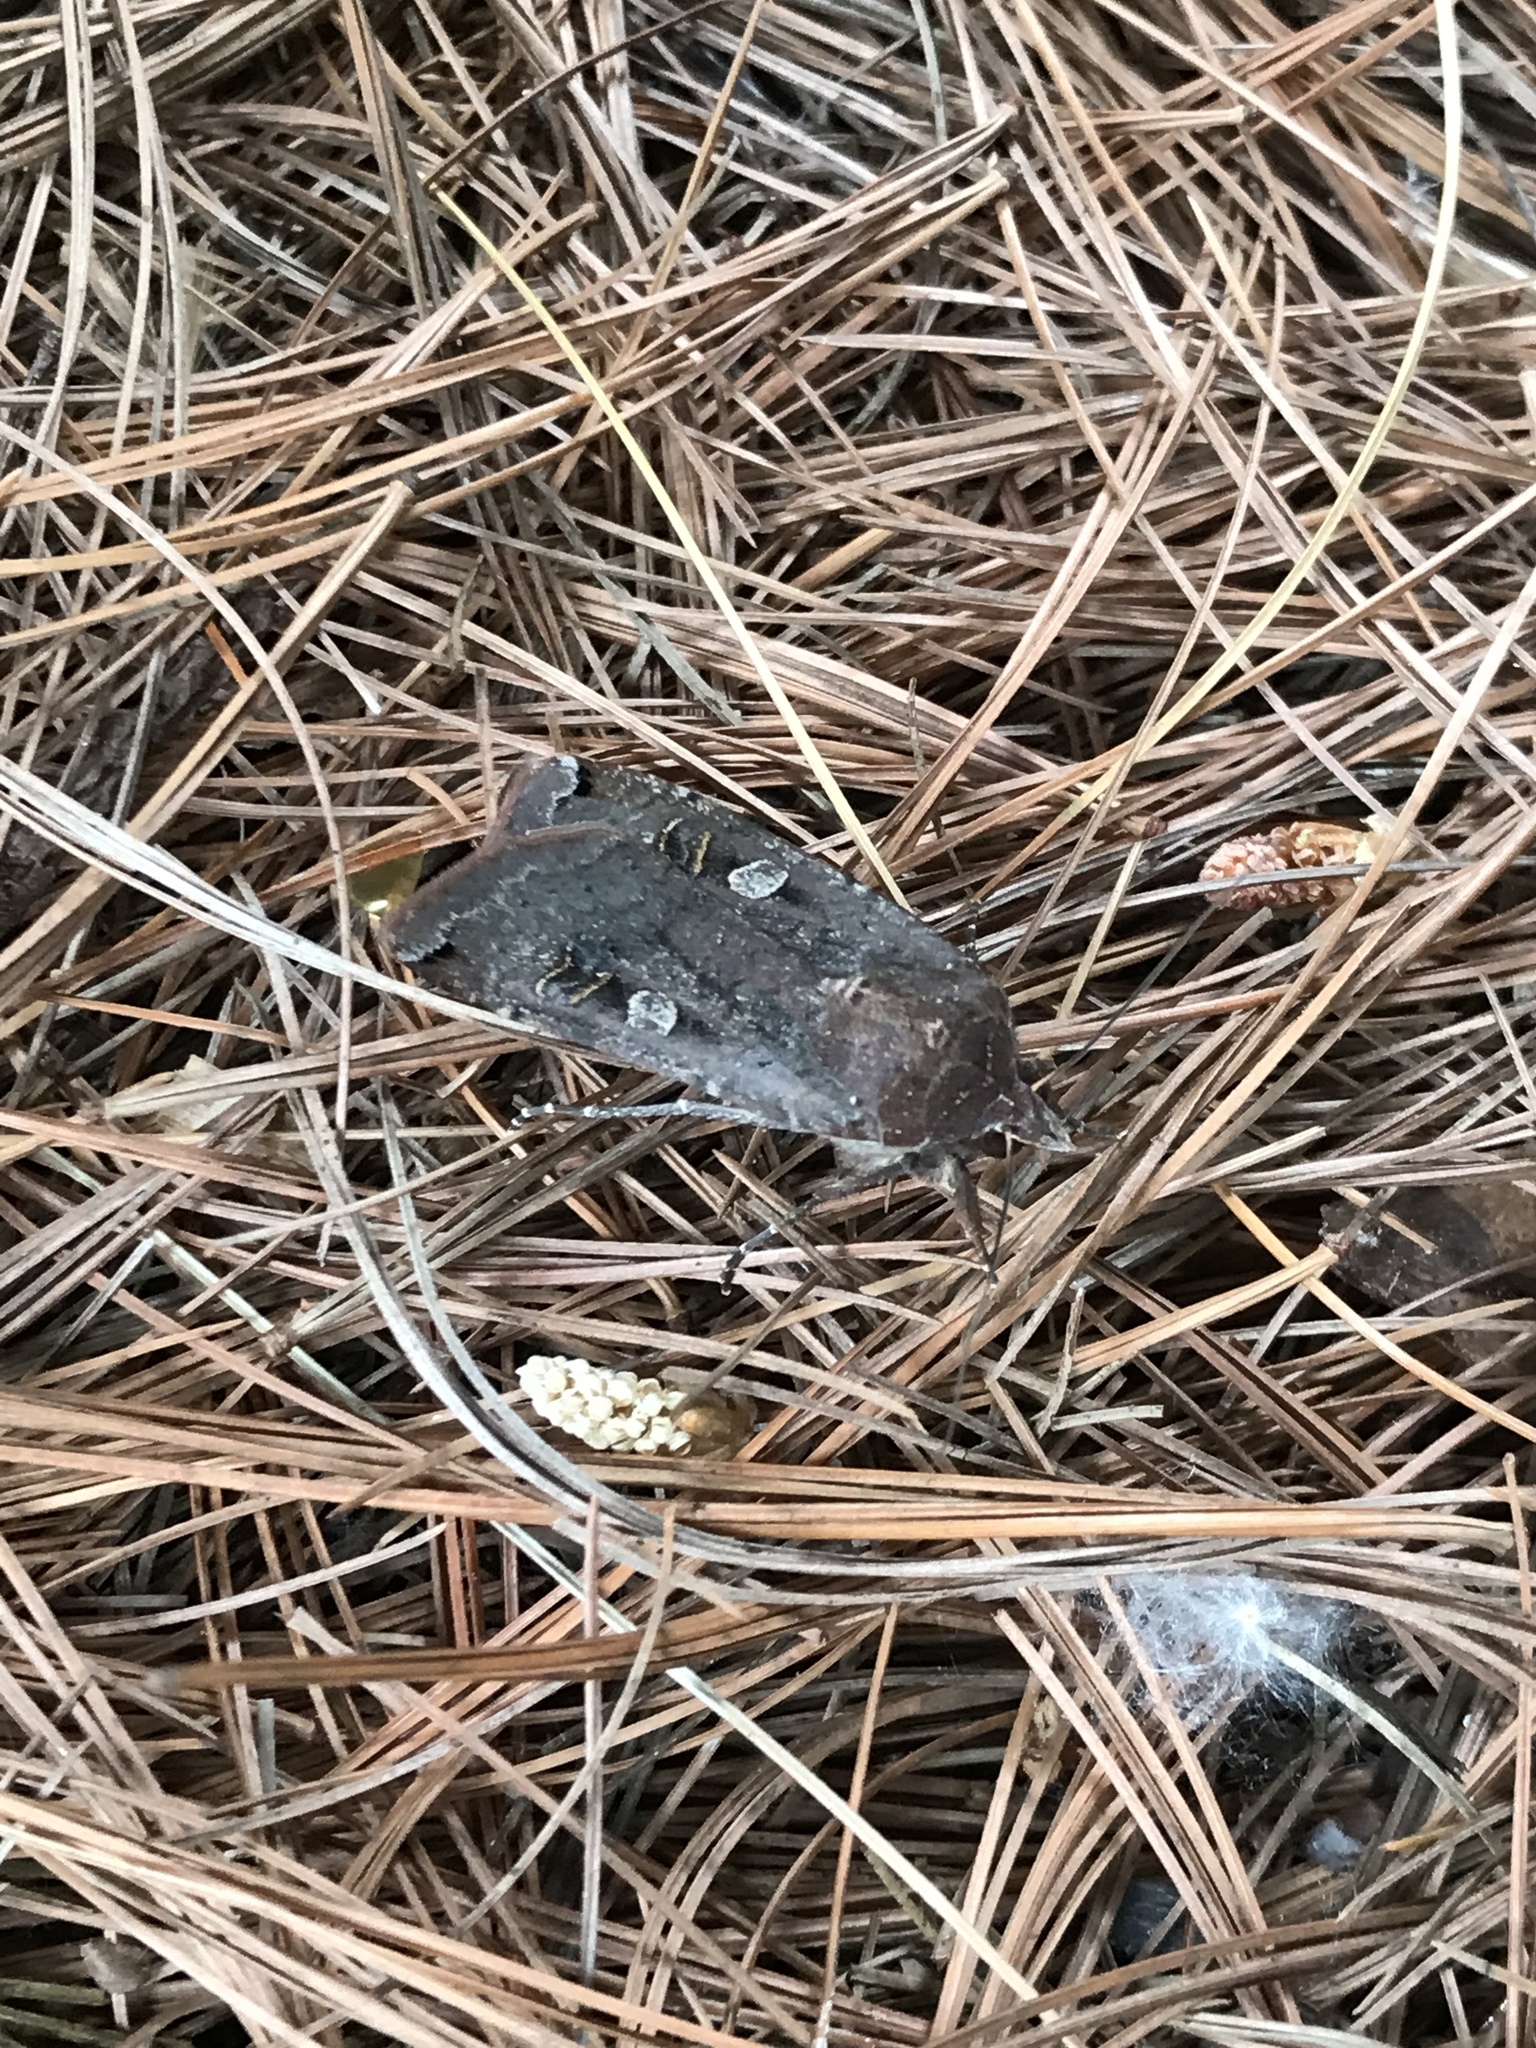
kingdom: Animalia
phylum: Arthropoda
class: Insecta
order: Lepidoptera
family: Noctuidae
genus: Noctua
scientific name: Noctua pronuba
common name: Large yellow underwing
